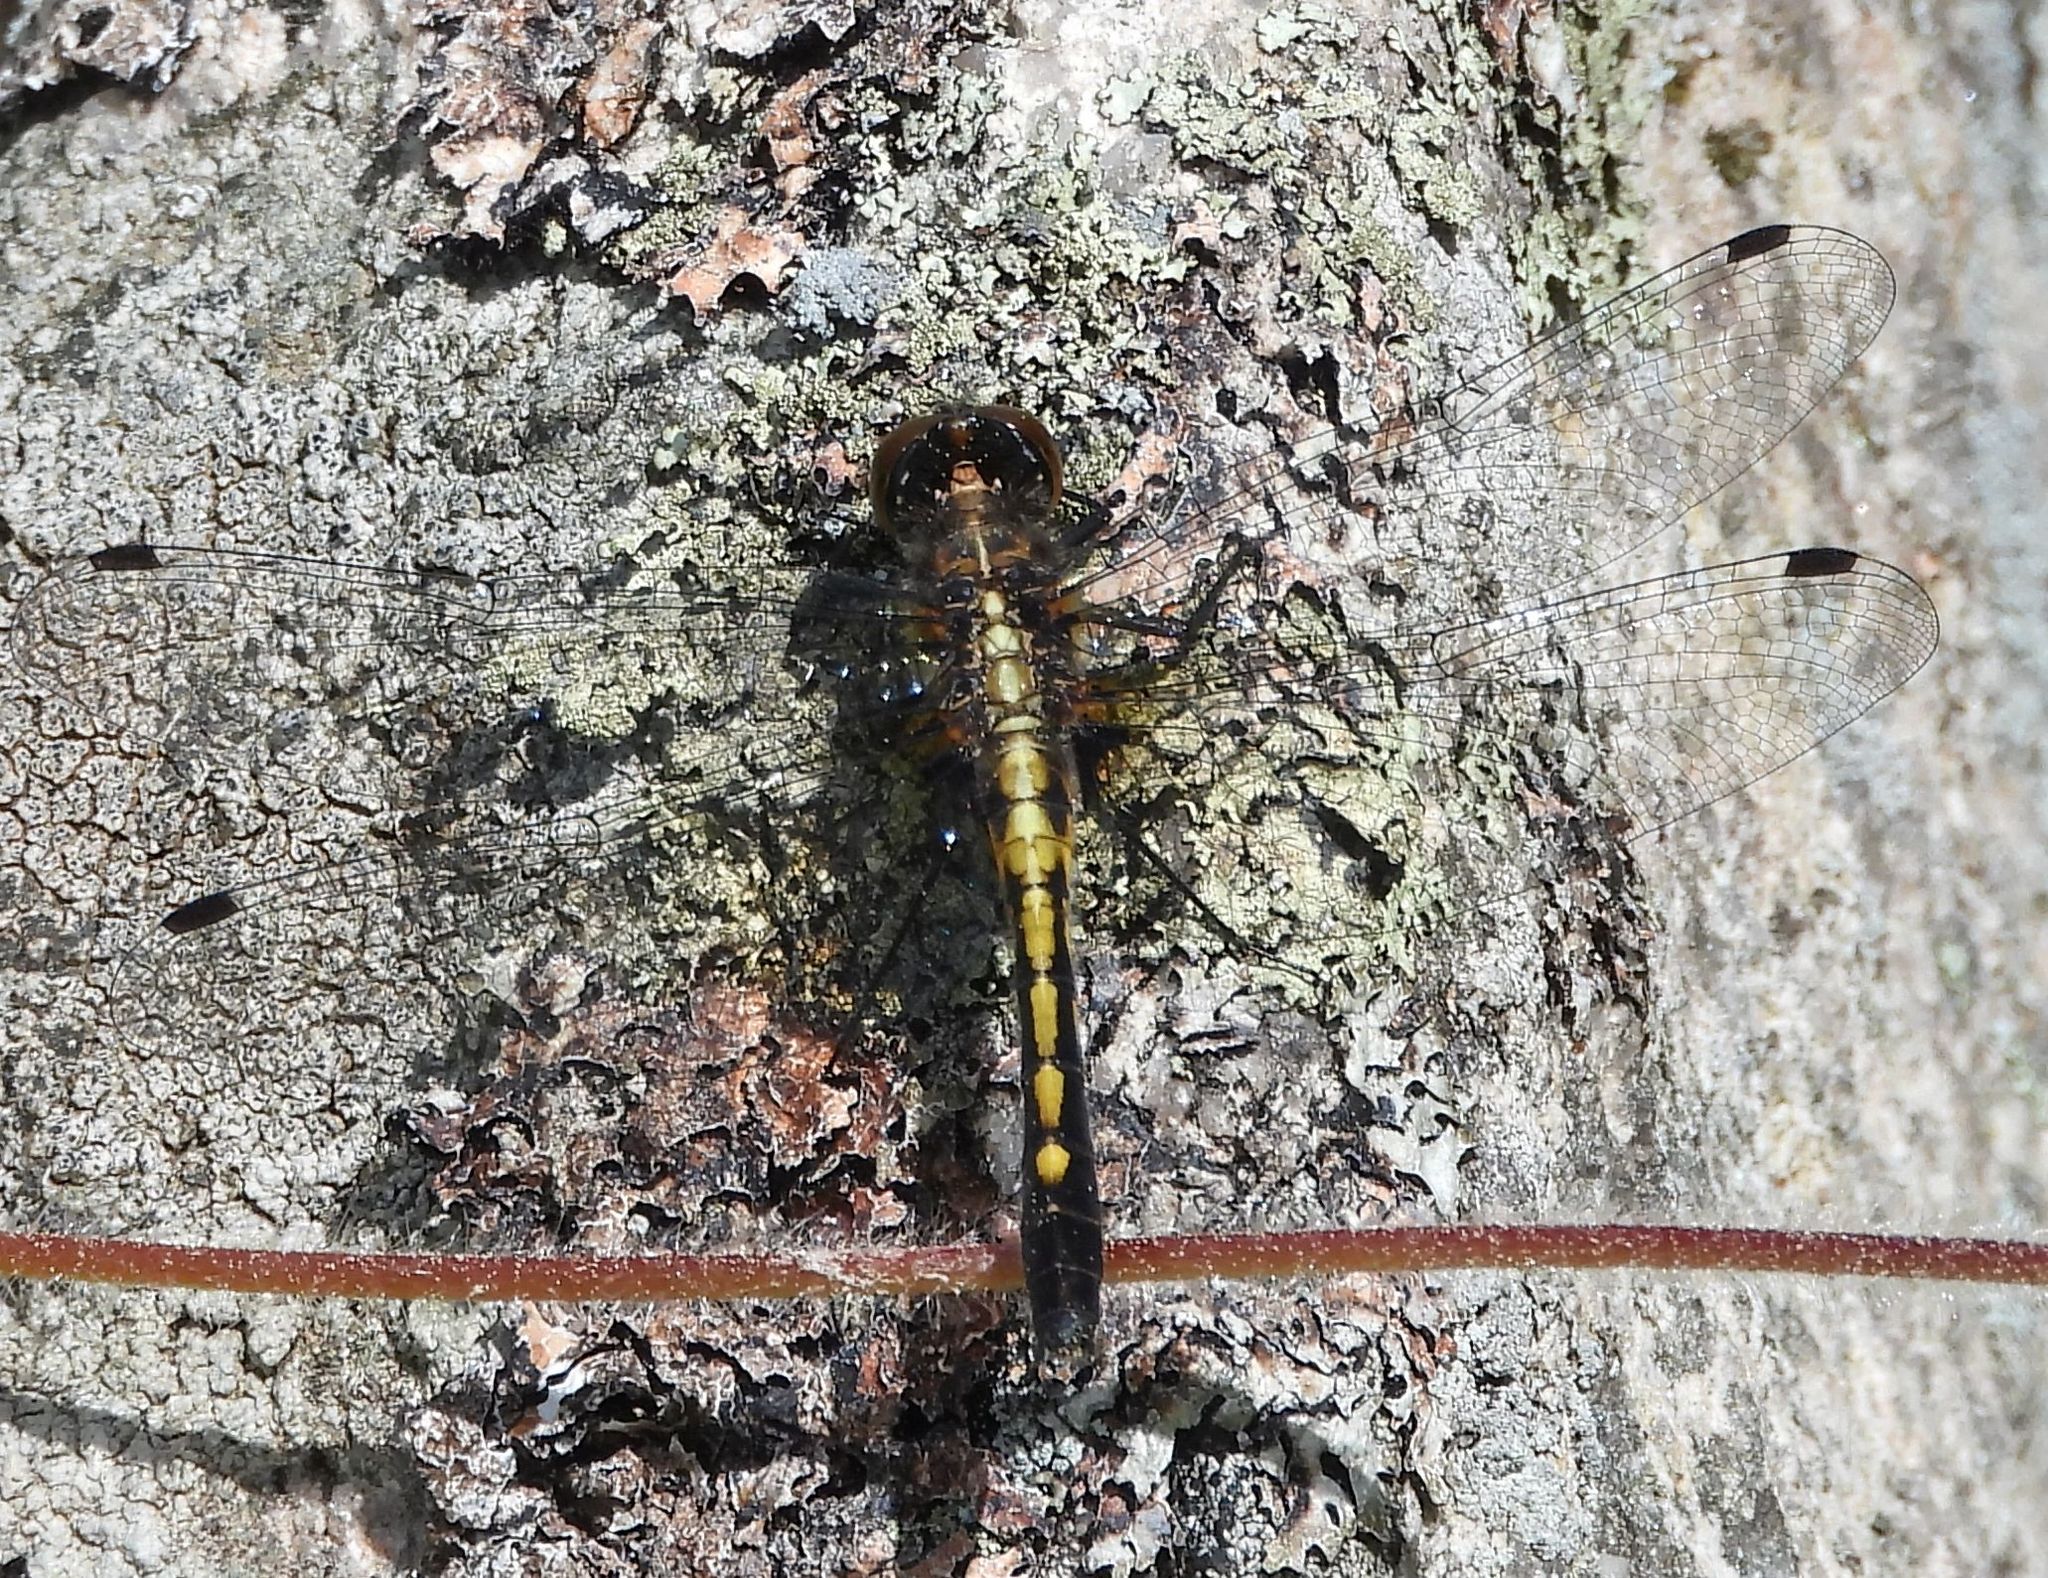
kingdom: Animalia
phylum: Arthropoda
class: Insecta
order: Odonata
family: Libellulidae
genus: Leucorrhinia
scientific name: Leucorrhinia intacta
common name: Dot-tailed whiteface
